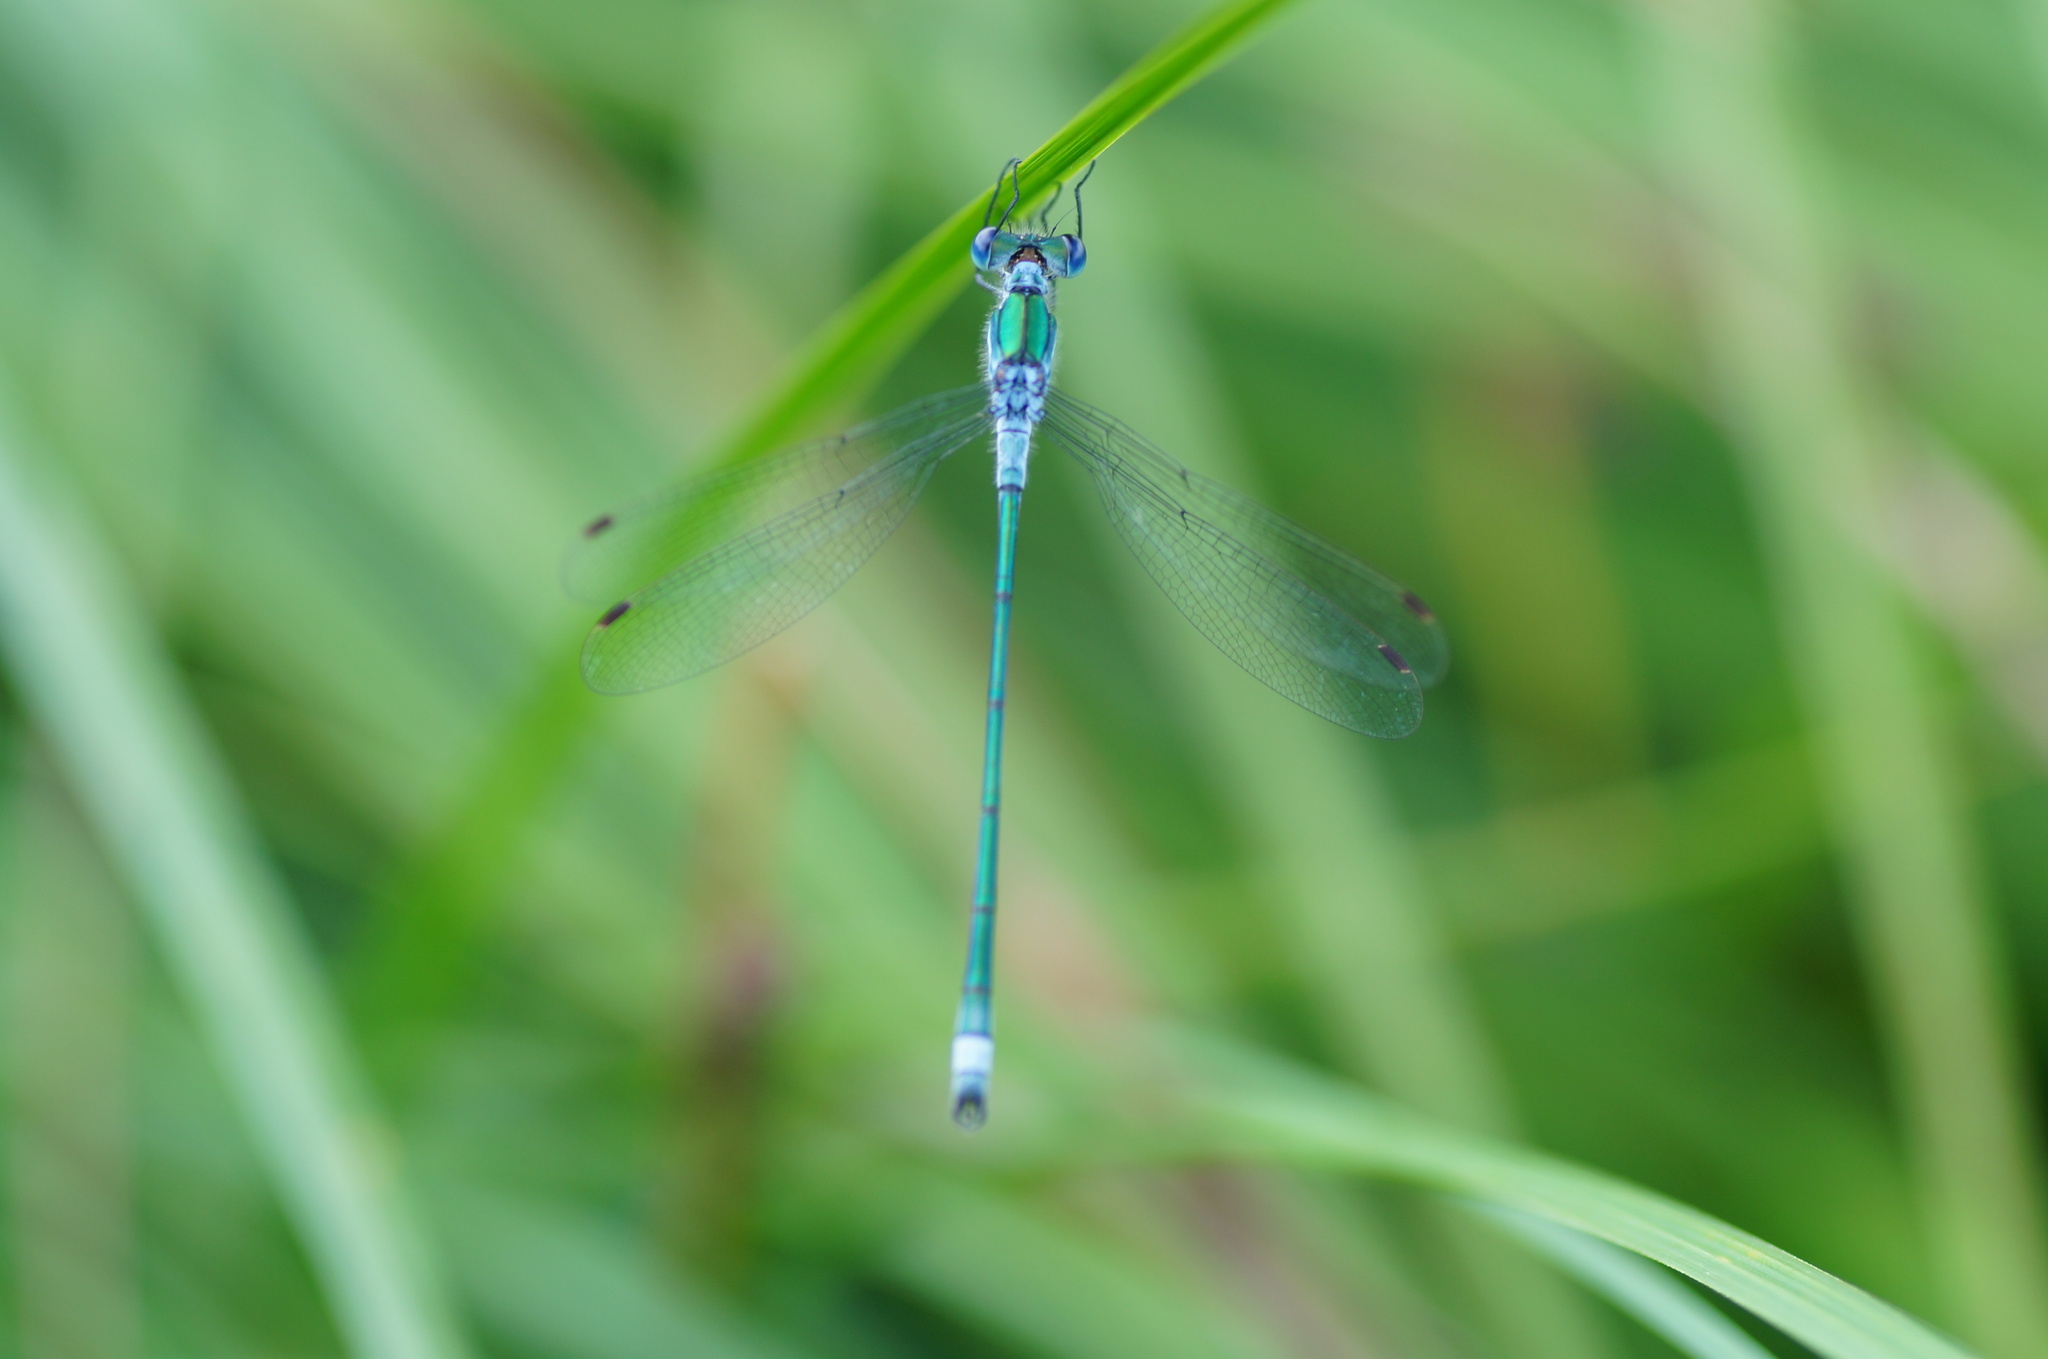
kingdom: Animalia
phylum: Arthropoda
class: Insecta
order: Odonata
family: Lestidae
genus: Lestes
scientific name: Lestes sponsa
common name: Common spreadwing
